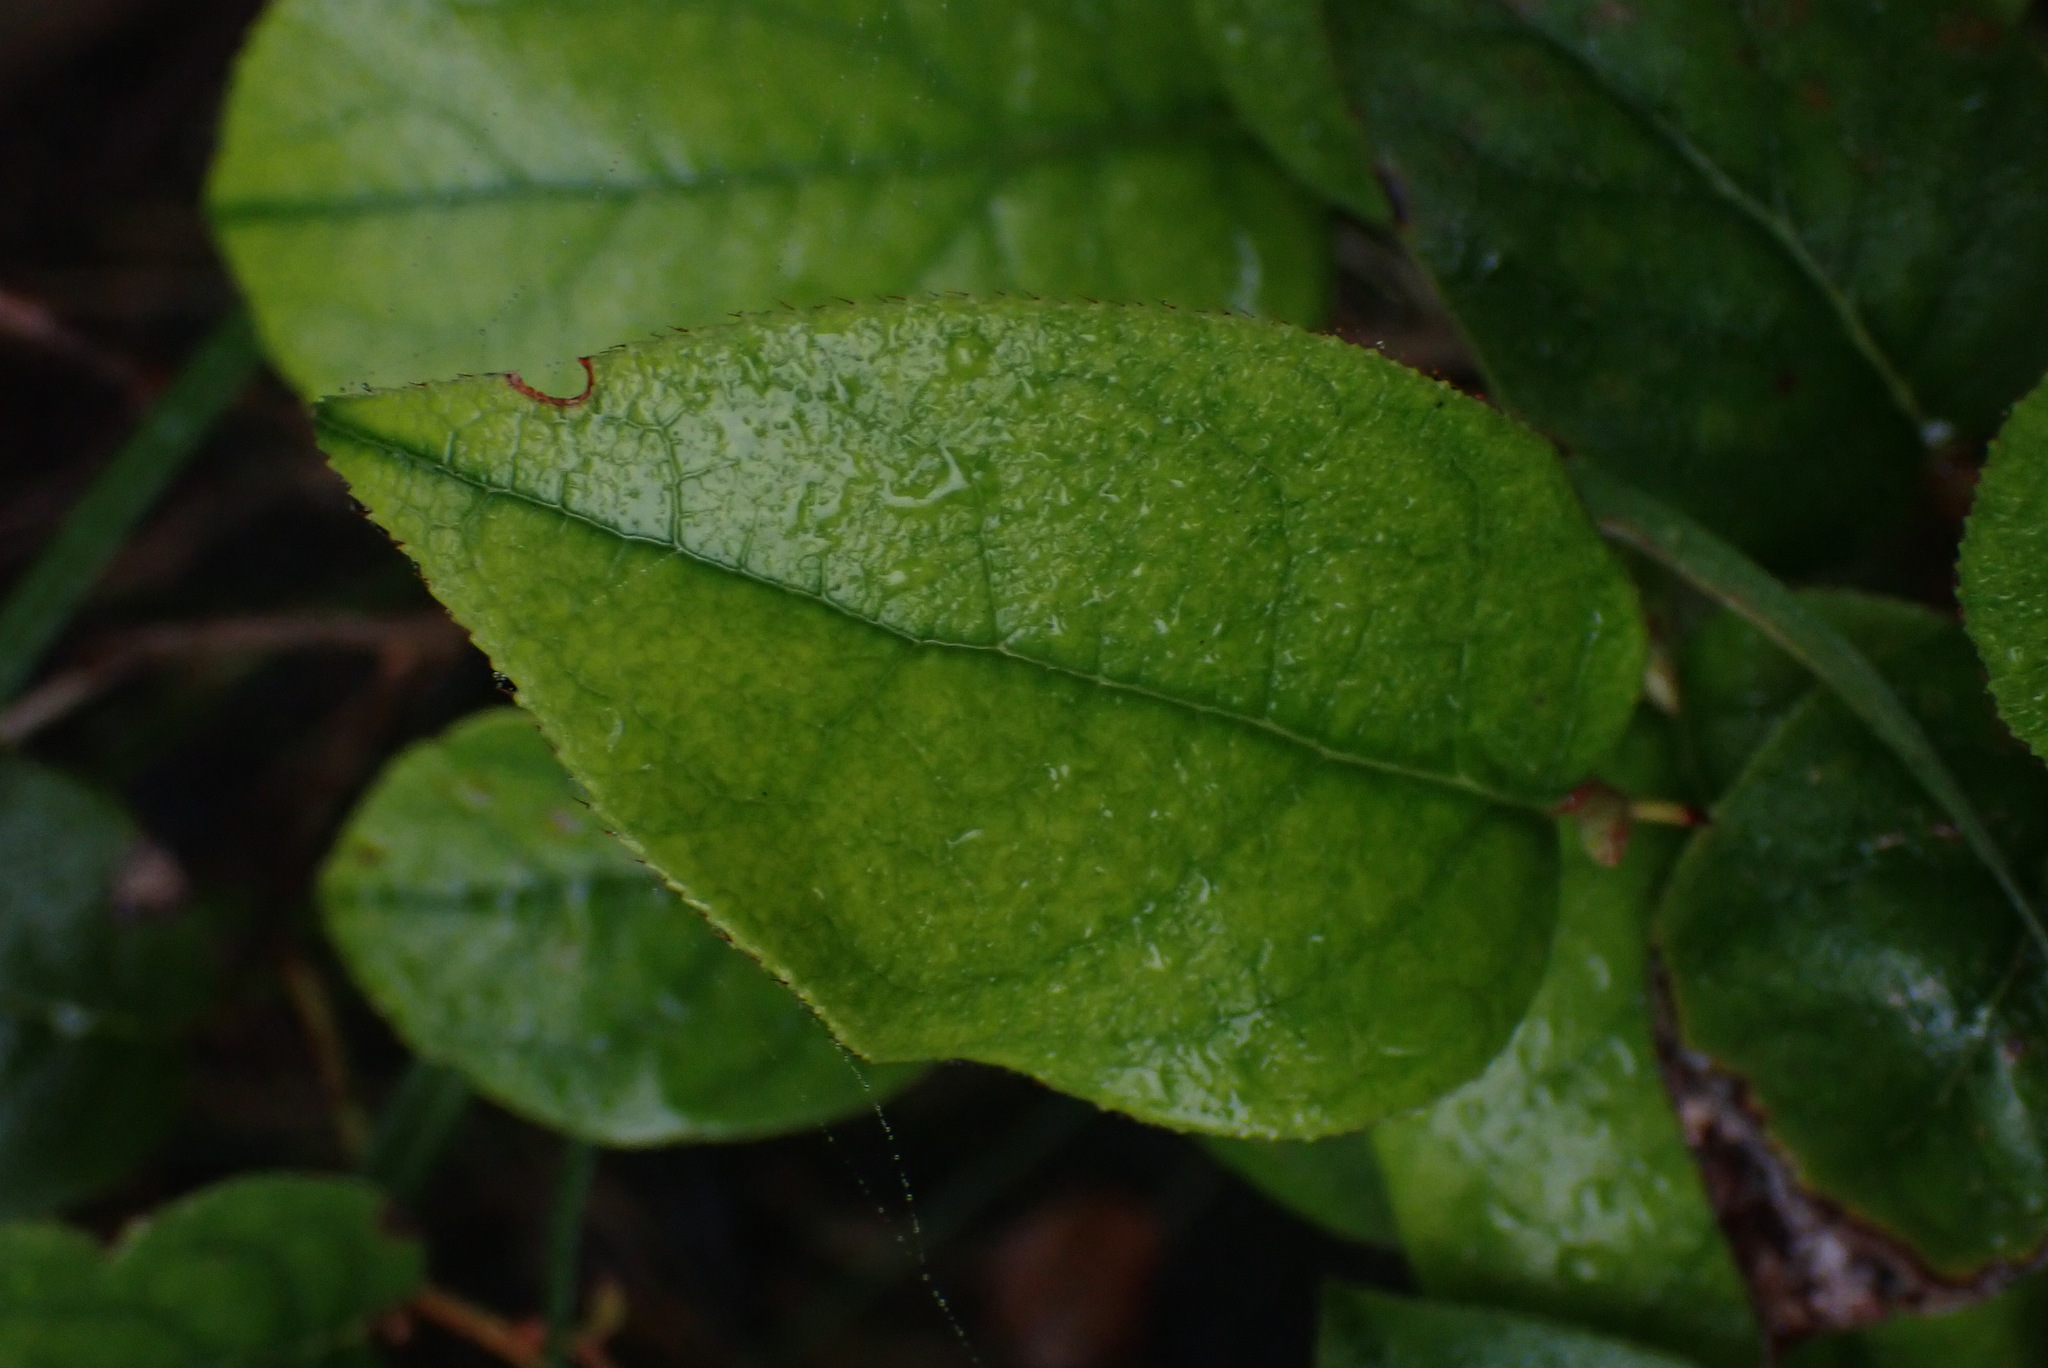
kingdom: Plantae
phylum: Tracheophyta
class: Magnoliopsida
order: Ericales
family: Ericaceae
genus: Gaultheria
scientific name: Gaultheria shallon
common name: Shallon
